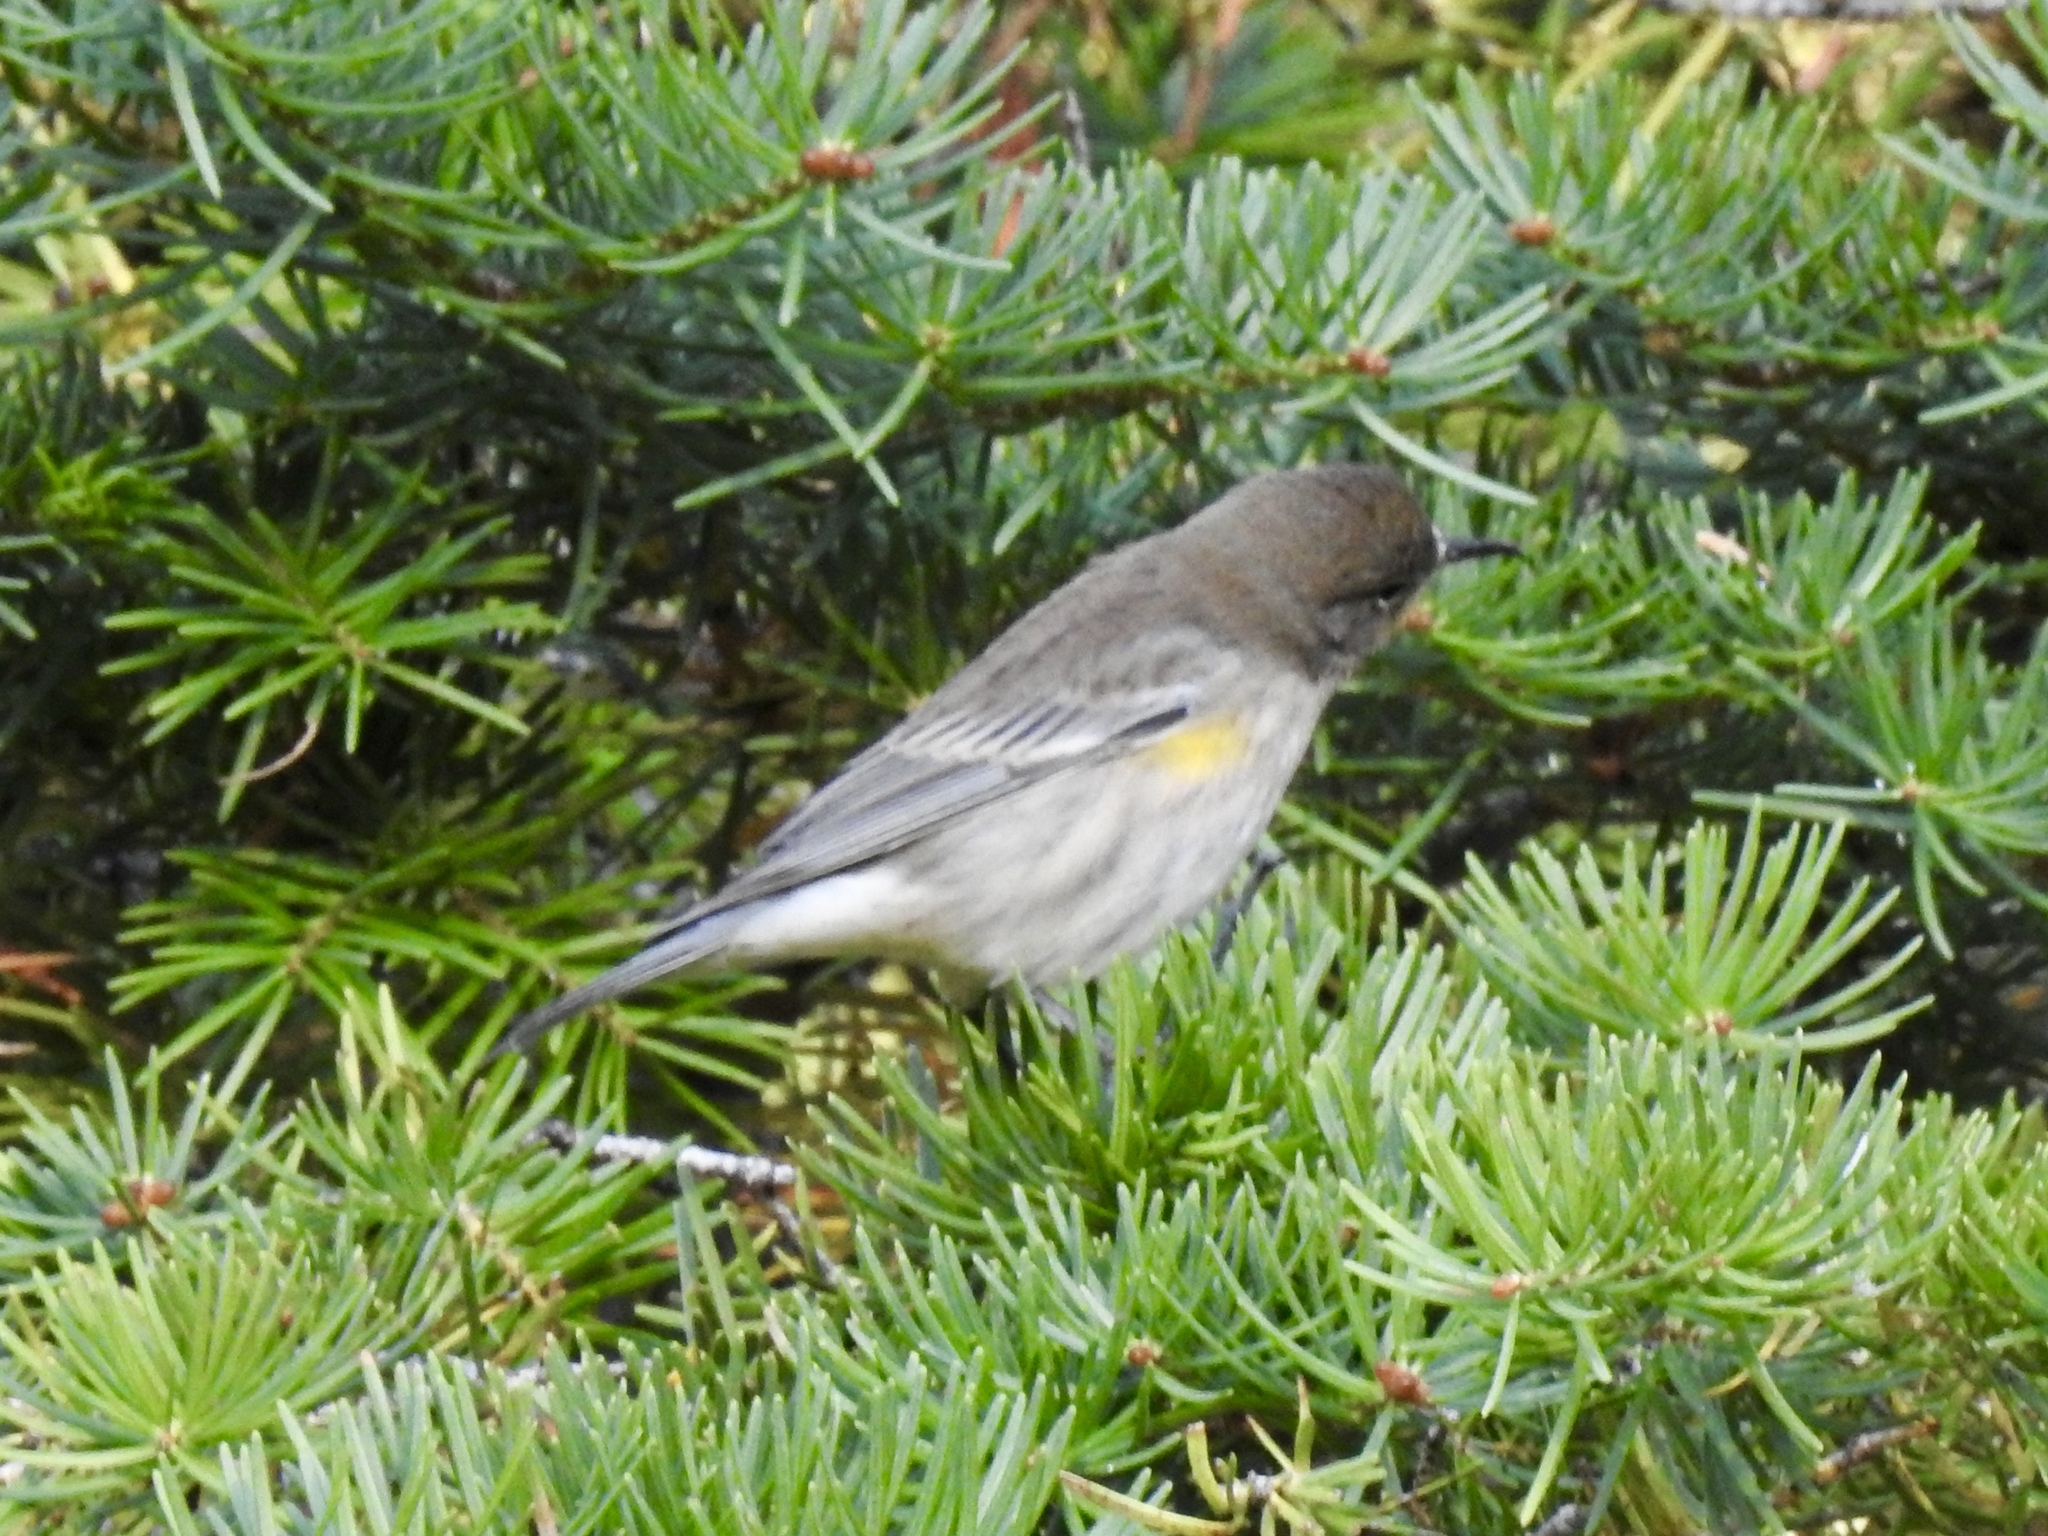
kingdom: Animalia
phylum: Chordata
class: Aves
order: Passeriformes
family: Parulidae
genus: Setophaga
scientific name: Setophaga coronata
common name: Myrtle warbler
